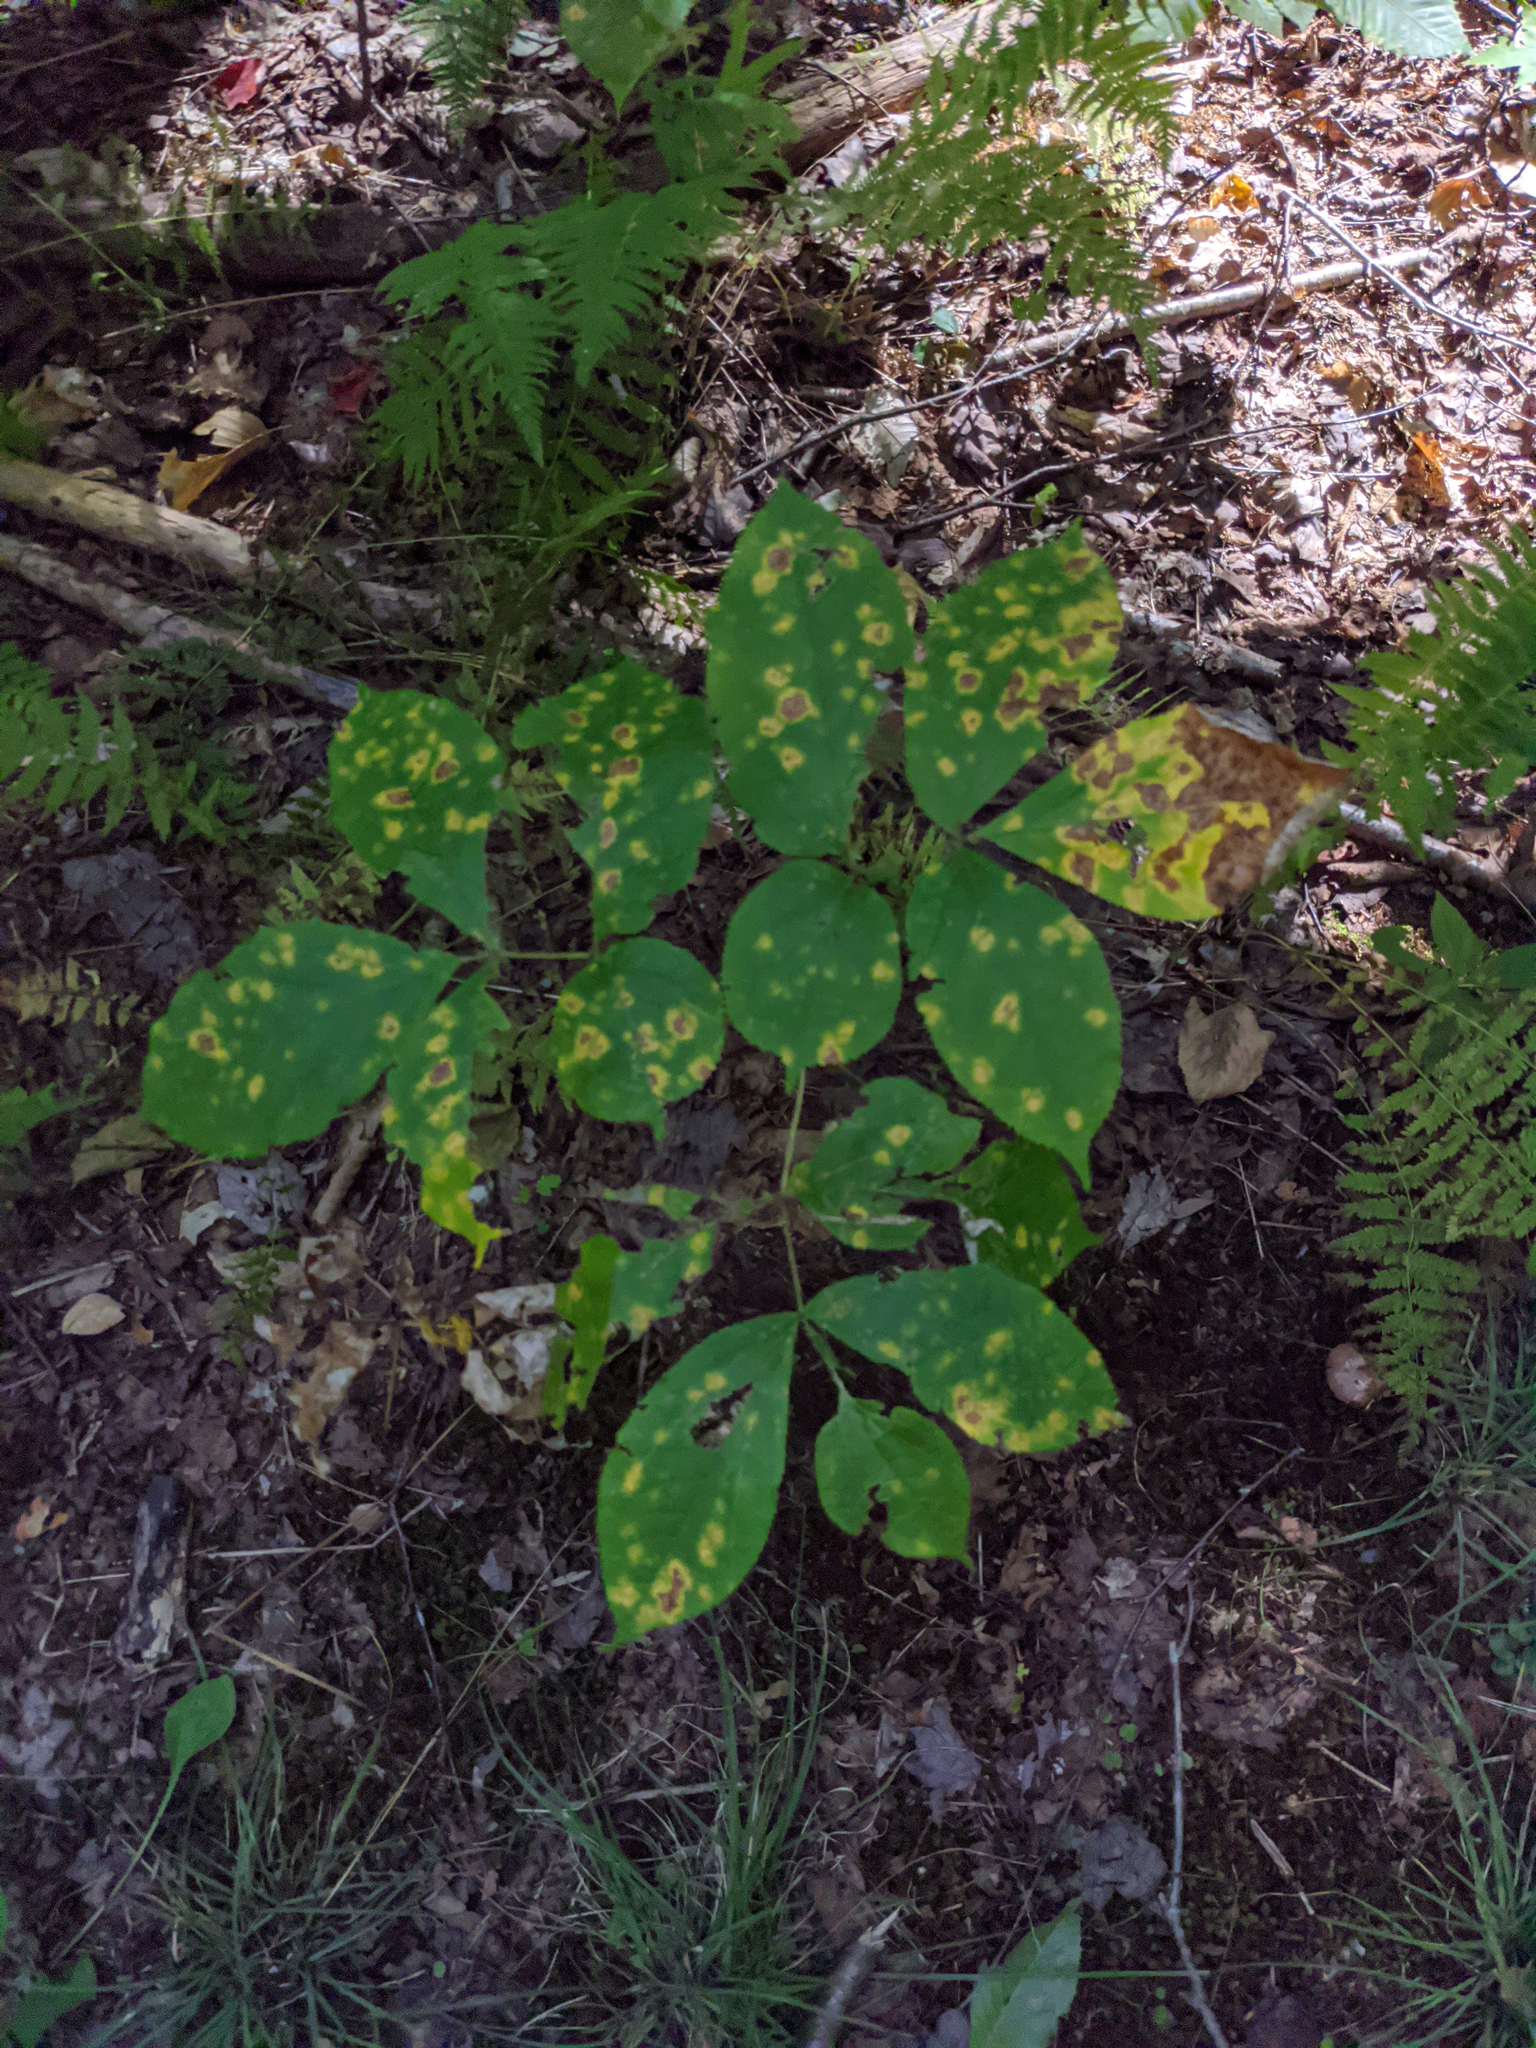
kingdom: Plantae
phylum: Tracheophyta
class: Magnoliopsida
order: Apiales
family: Araliaceae
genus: Aralia
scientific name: Aralia nudicaulis
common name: Wild sarsaparilla
